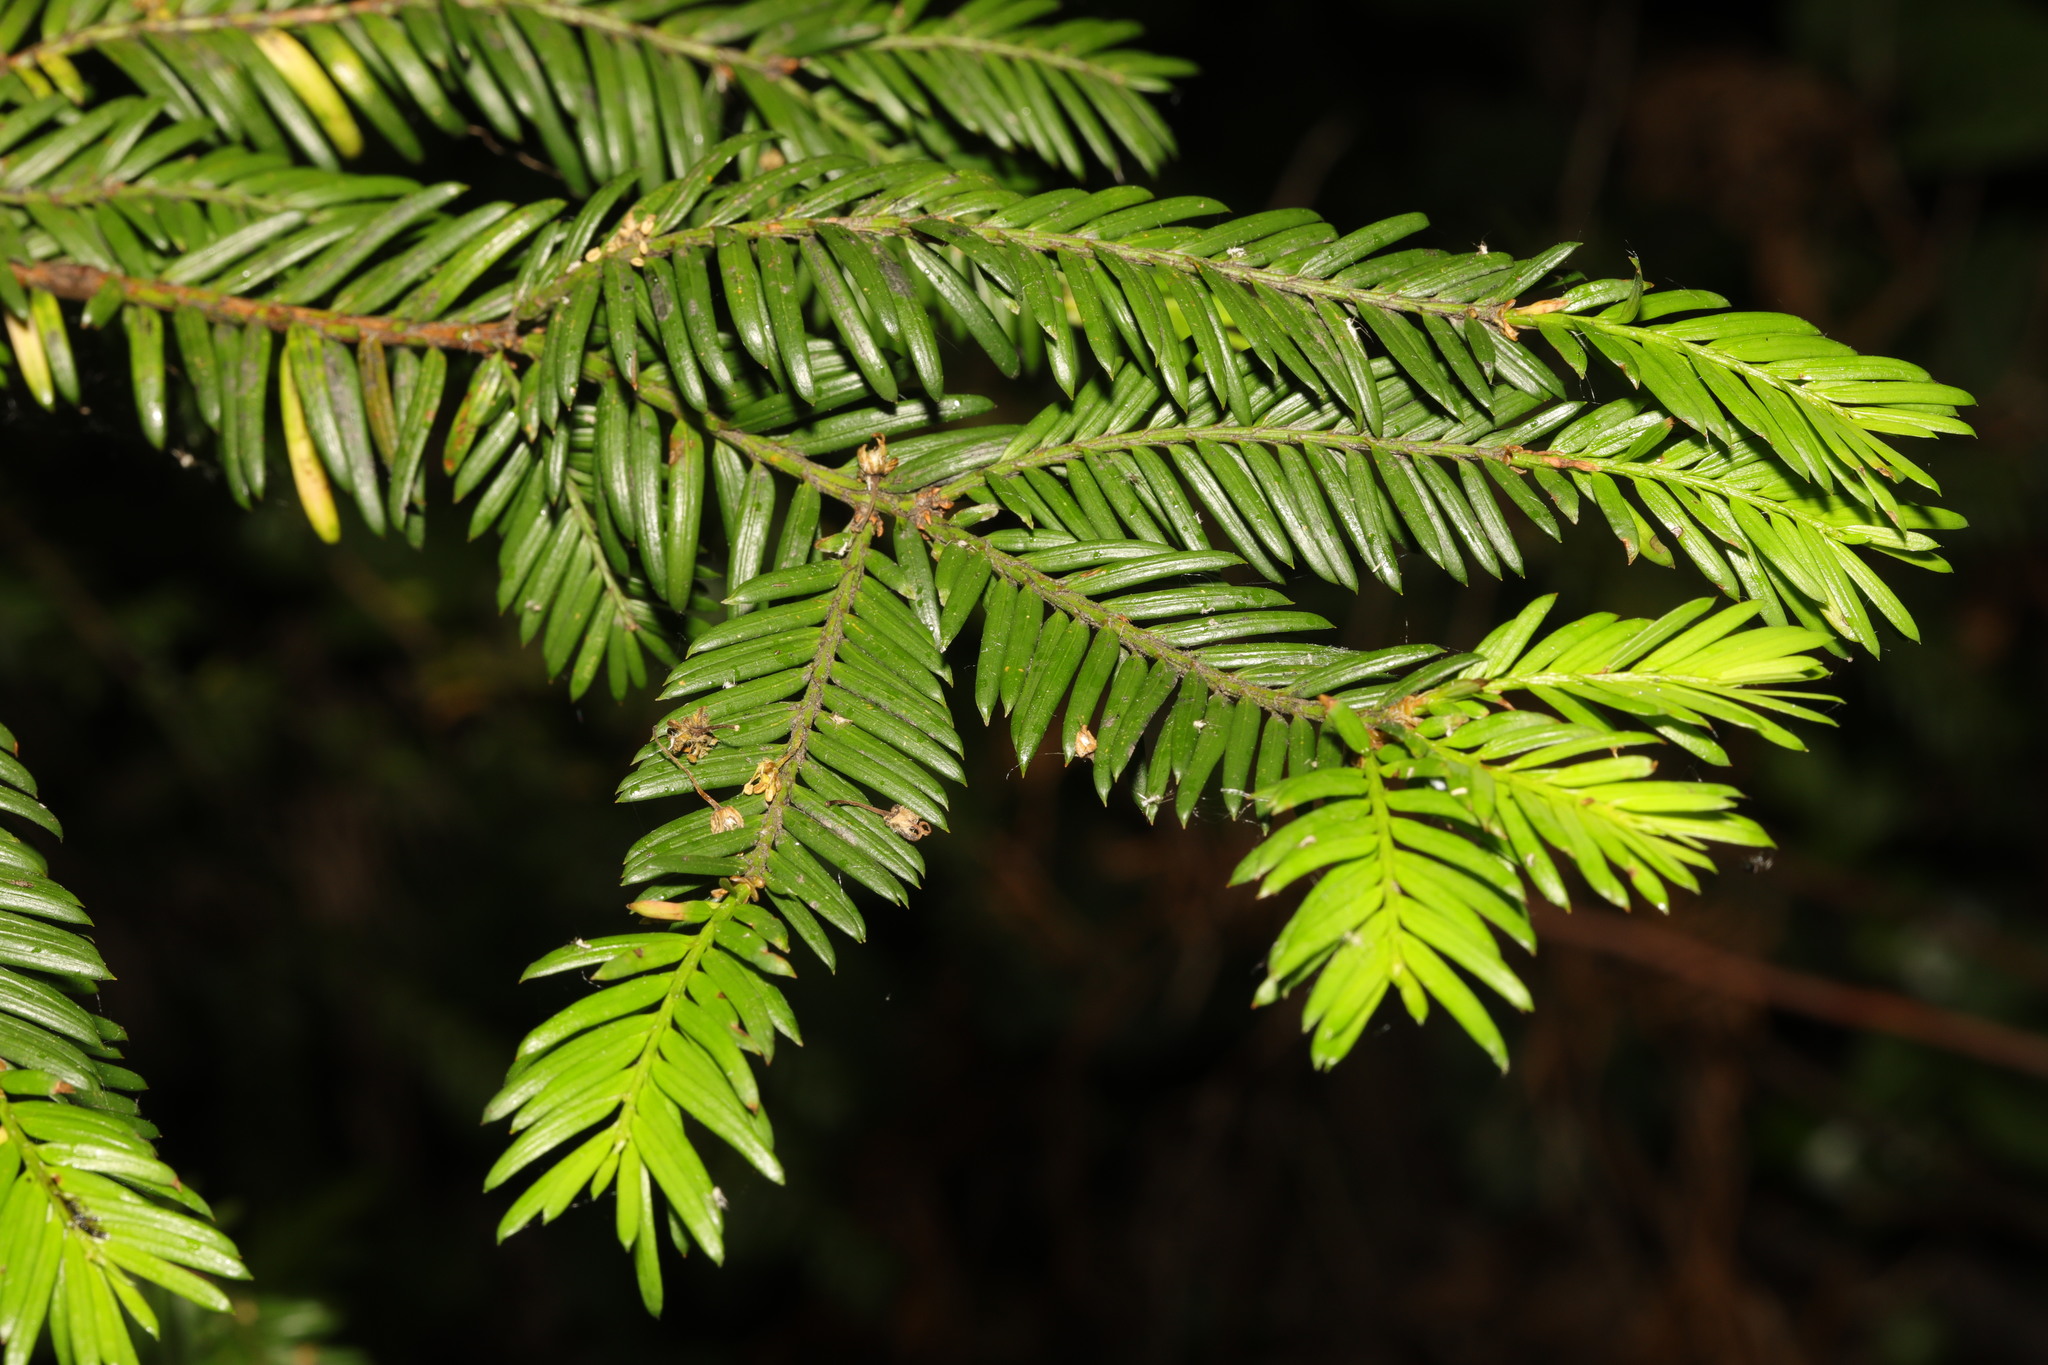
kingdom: Plantae
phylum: Tracheophyta
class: Pinopsida
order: Pinales
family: Taxaceae
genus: Taxus
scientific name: Taxus baccata
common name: Yew
